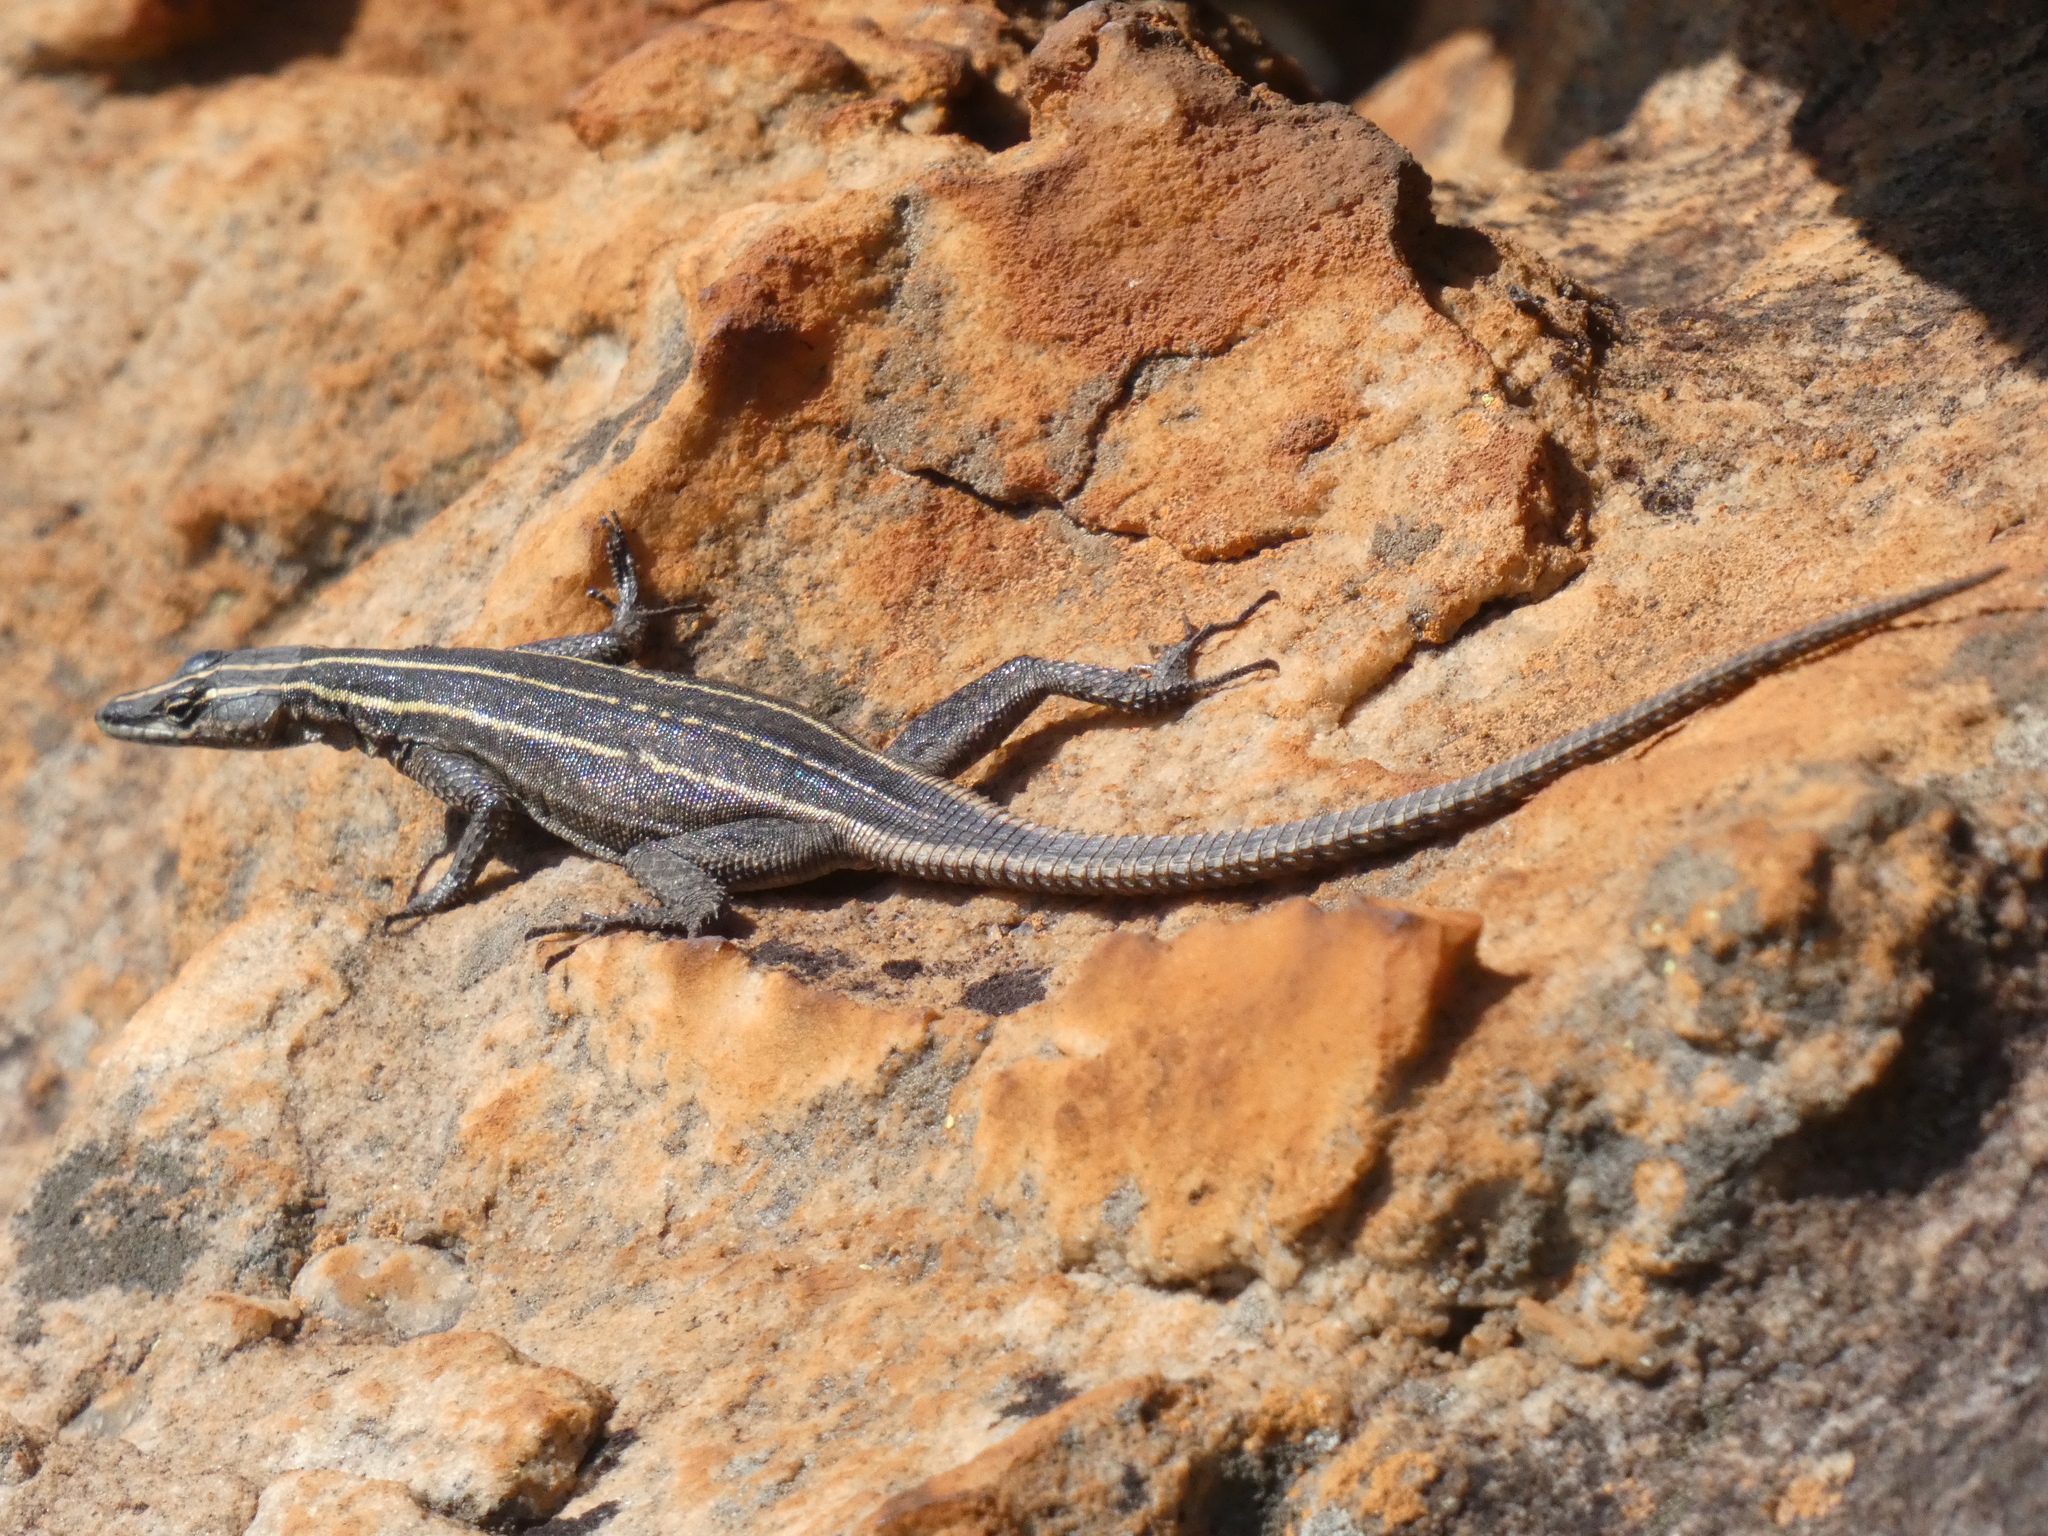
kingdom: Animalia
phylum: Chordata
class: Squamata
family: Cordylidae
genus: Platysaurus
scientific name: Platysaurus orientalis
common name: Sekhukune flat lizard
